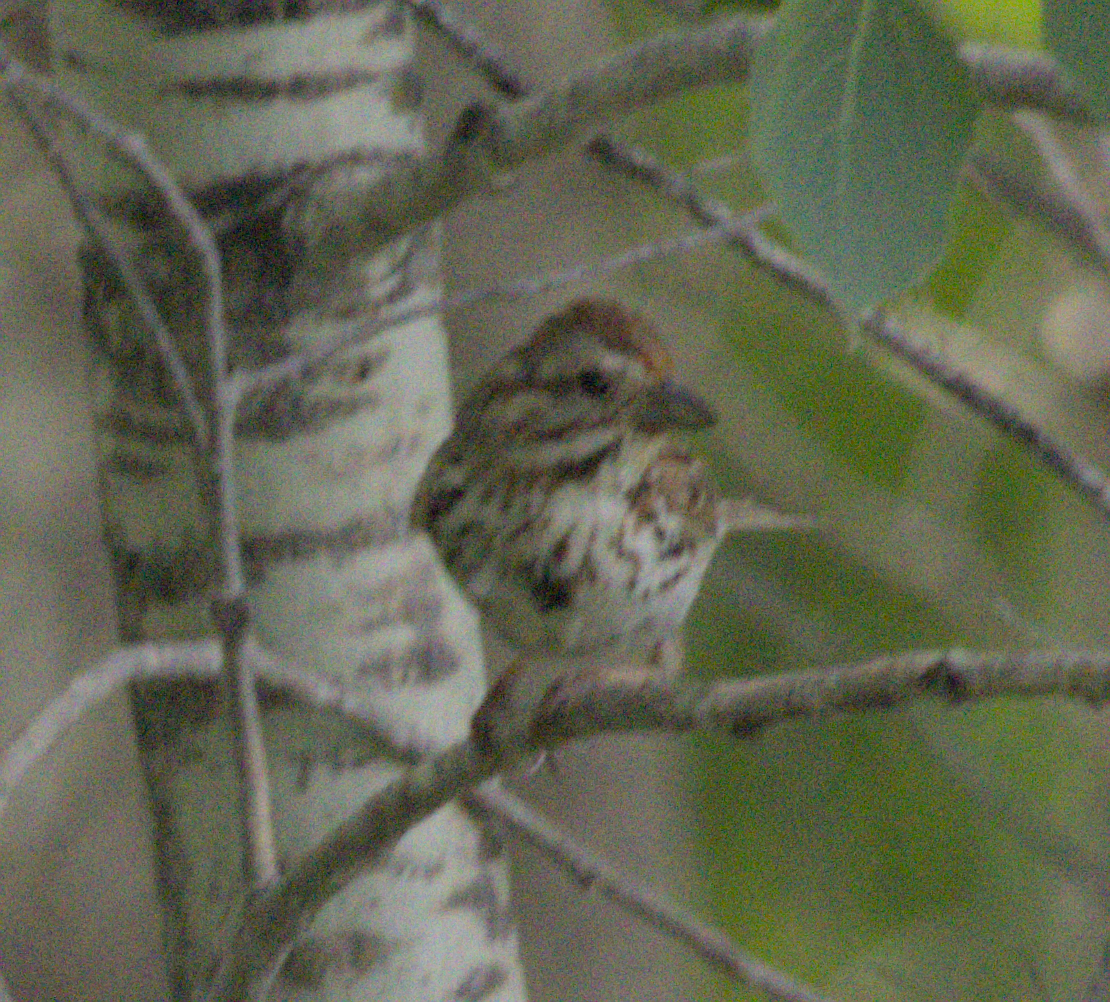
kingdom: Animalia
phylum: Chordata
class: Aves
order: Passeriformes
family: Passerellidae
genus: Melospiza
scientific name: Melospiza melodia
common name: Song sparrow
